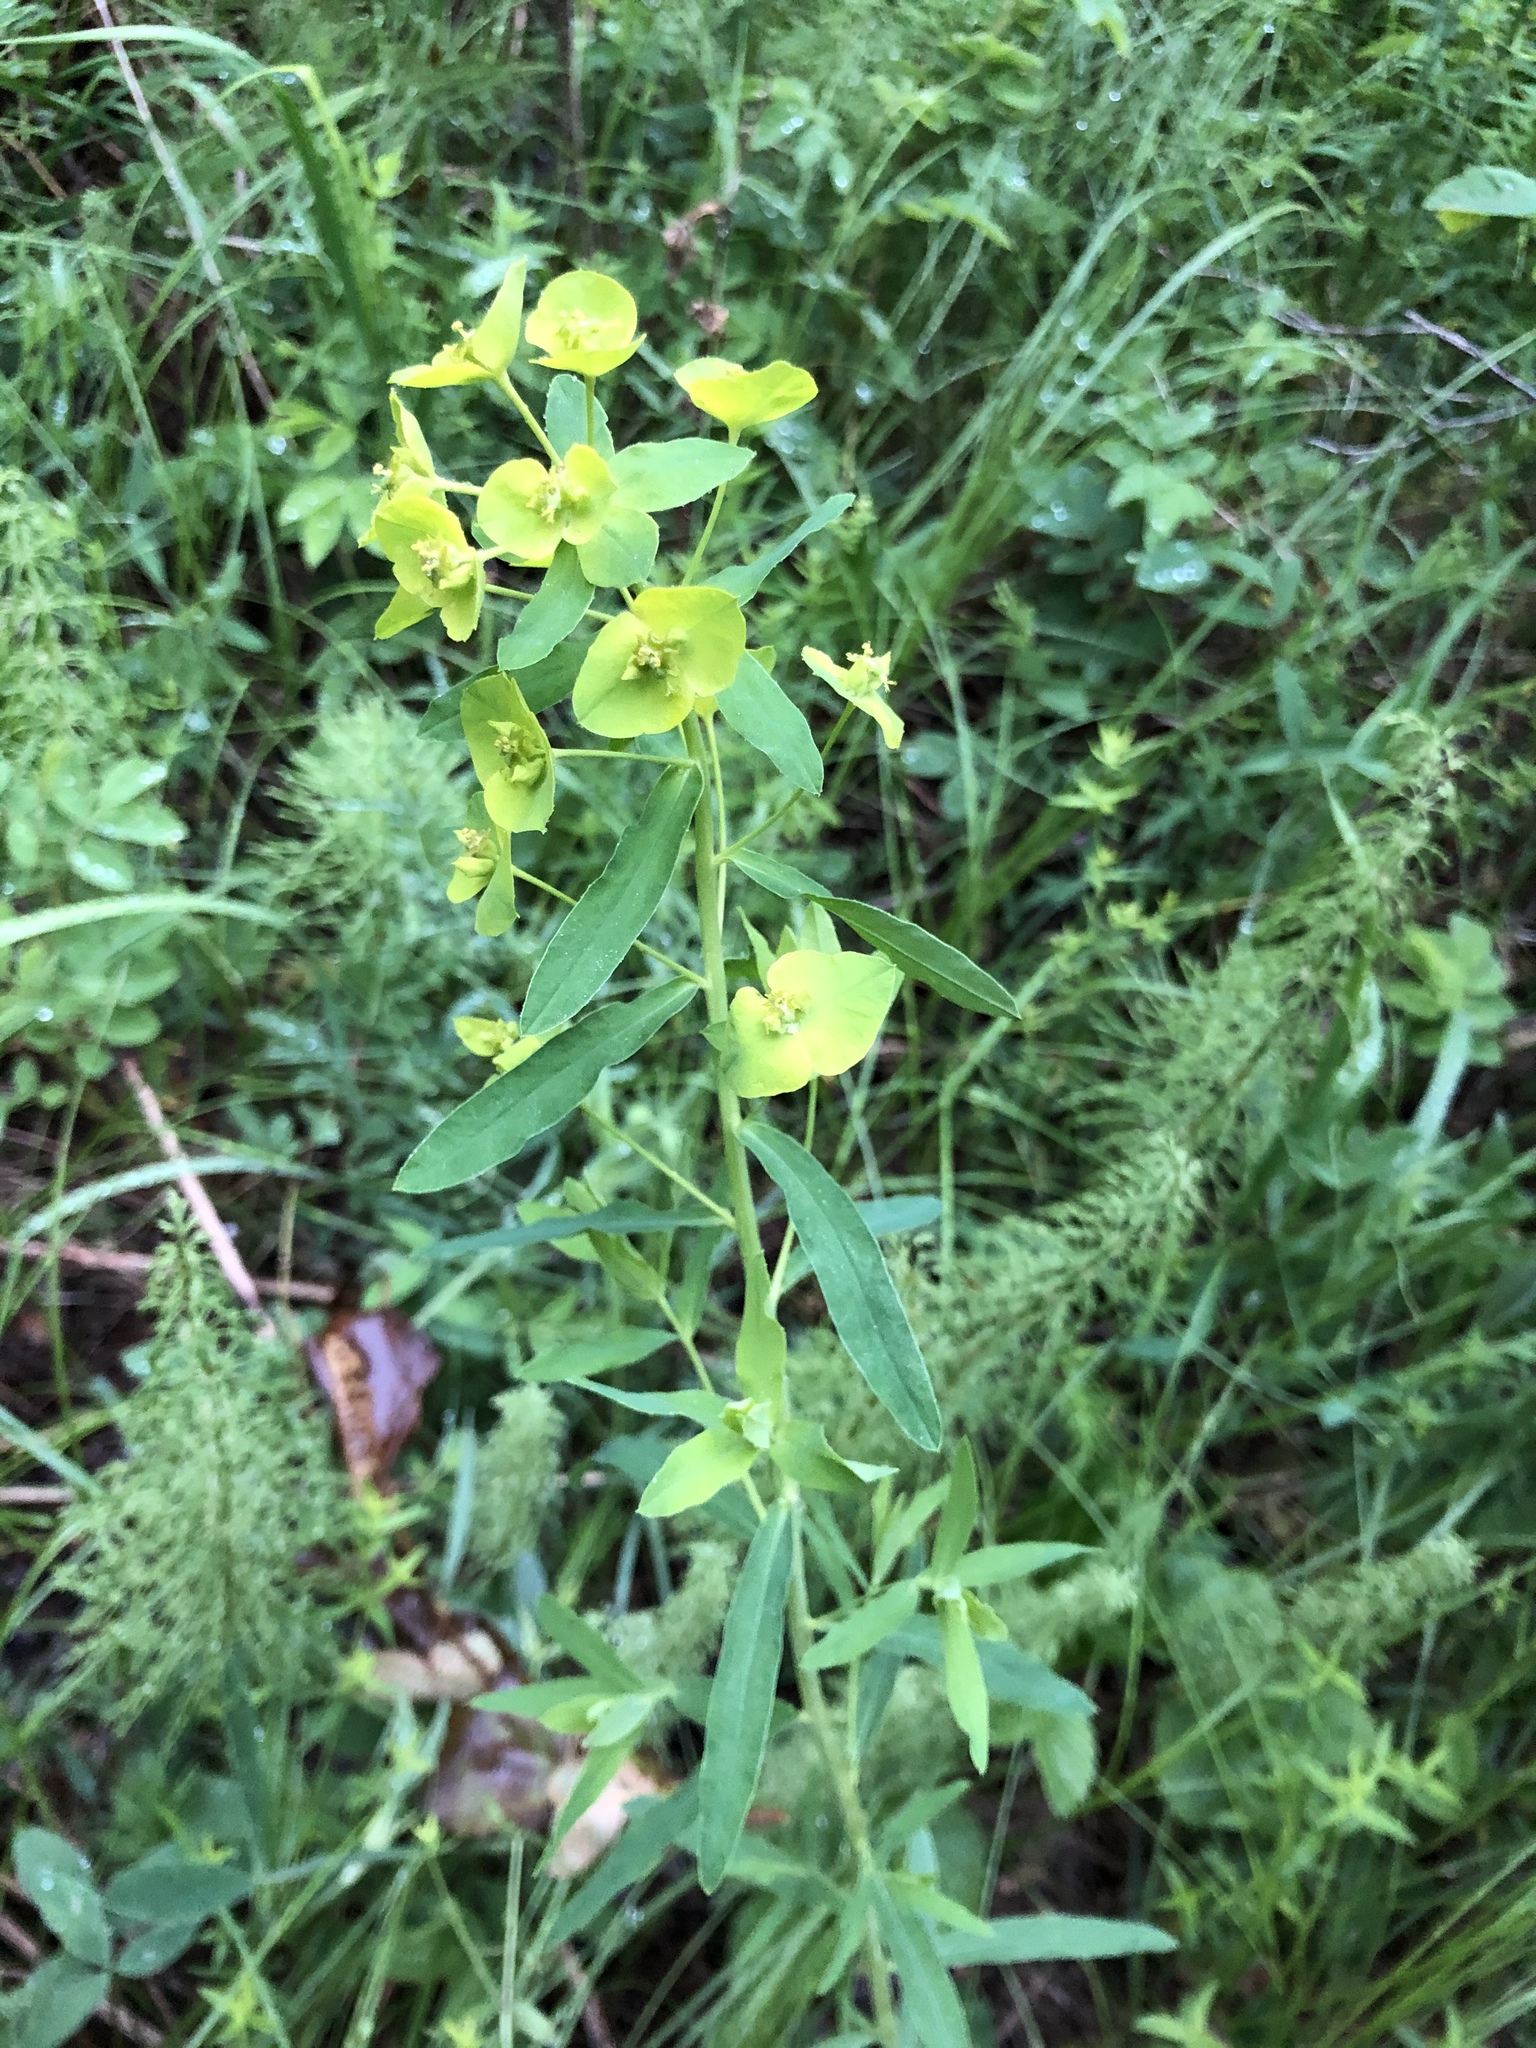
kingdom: Plantae
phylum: Tracheophyta
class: Magnoliopsida
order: Malpighiales
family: Euphorbiaceae
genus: Euphorbia
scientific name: Euphorbia virgata
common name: Leafy spurge
